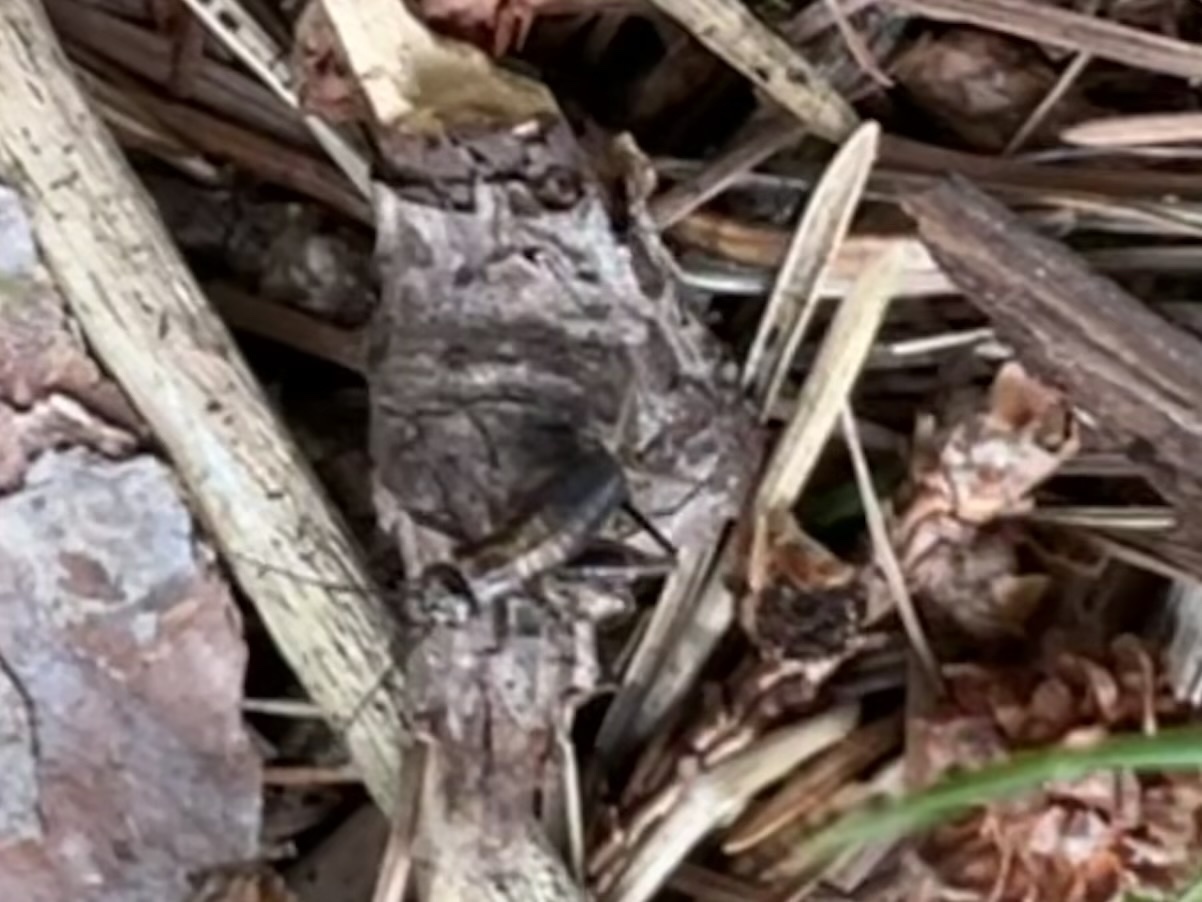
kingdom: Animalia
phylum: Arthropoda
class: Insecta
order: Orthoptera
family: Trigonidiidae
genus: Nemobius
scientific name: Nemobius sylvestris
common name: Wood-cricket
